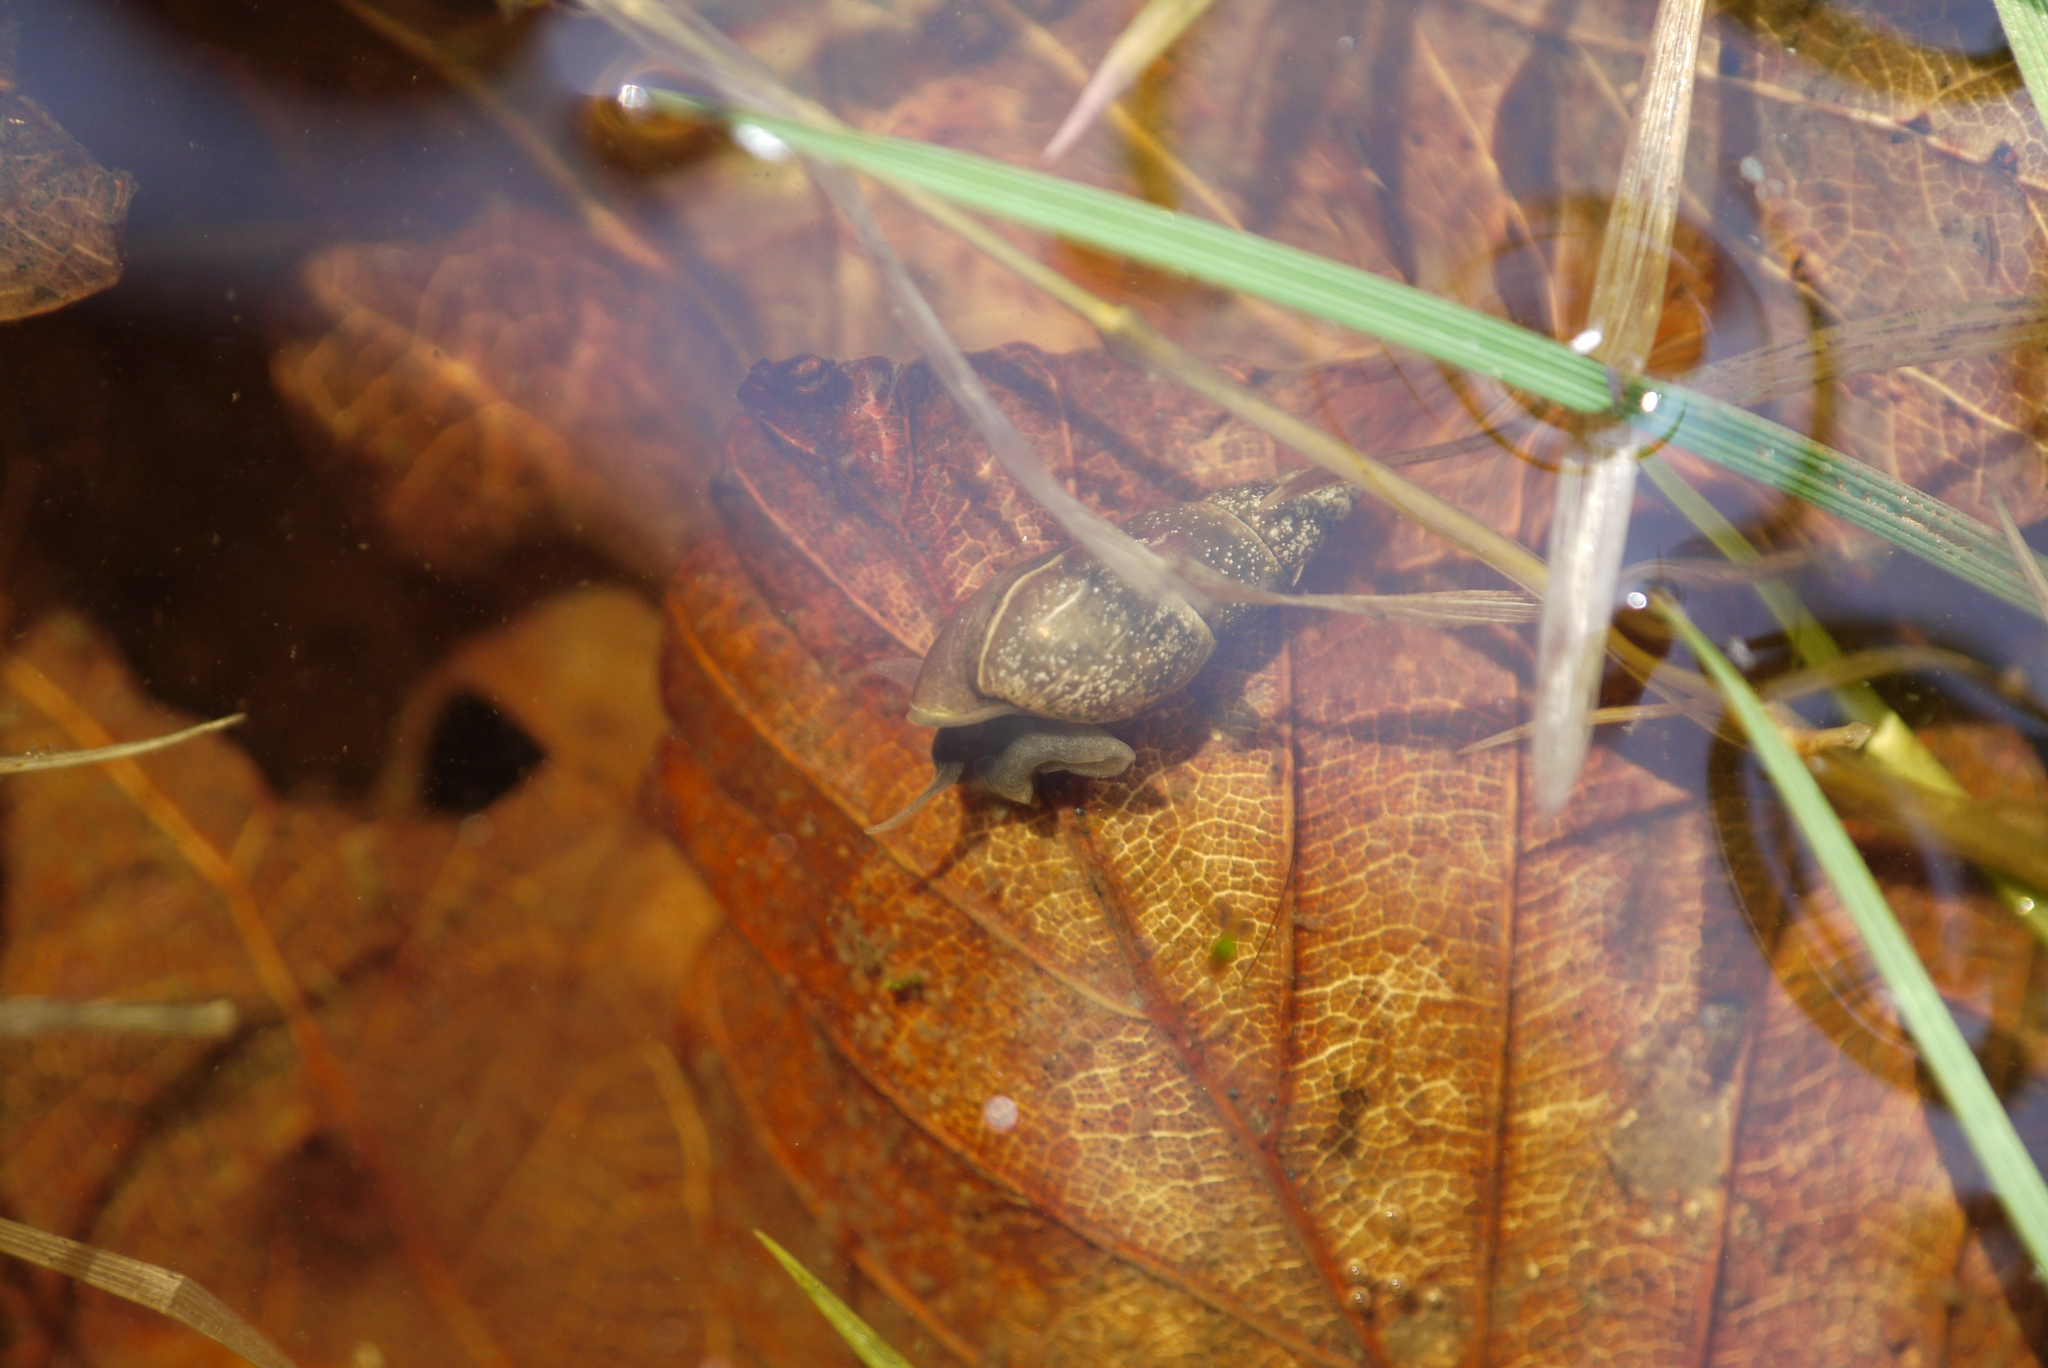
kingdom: Animalia
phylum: Mollusca
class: Gastropoda
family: Lymnaeidae
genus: Omphiscola
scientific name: Omphiscola glabra
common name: Mud snail
